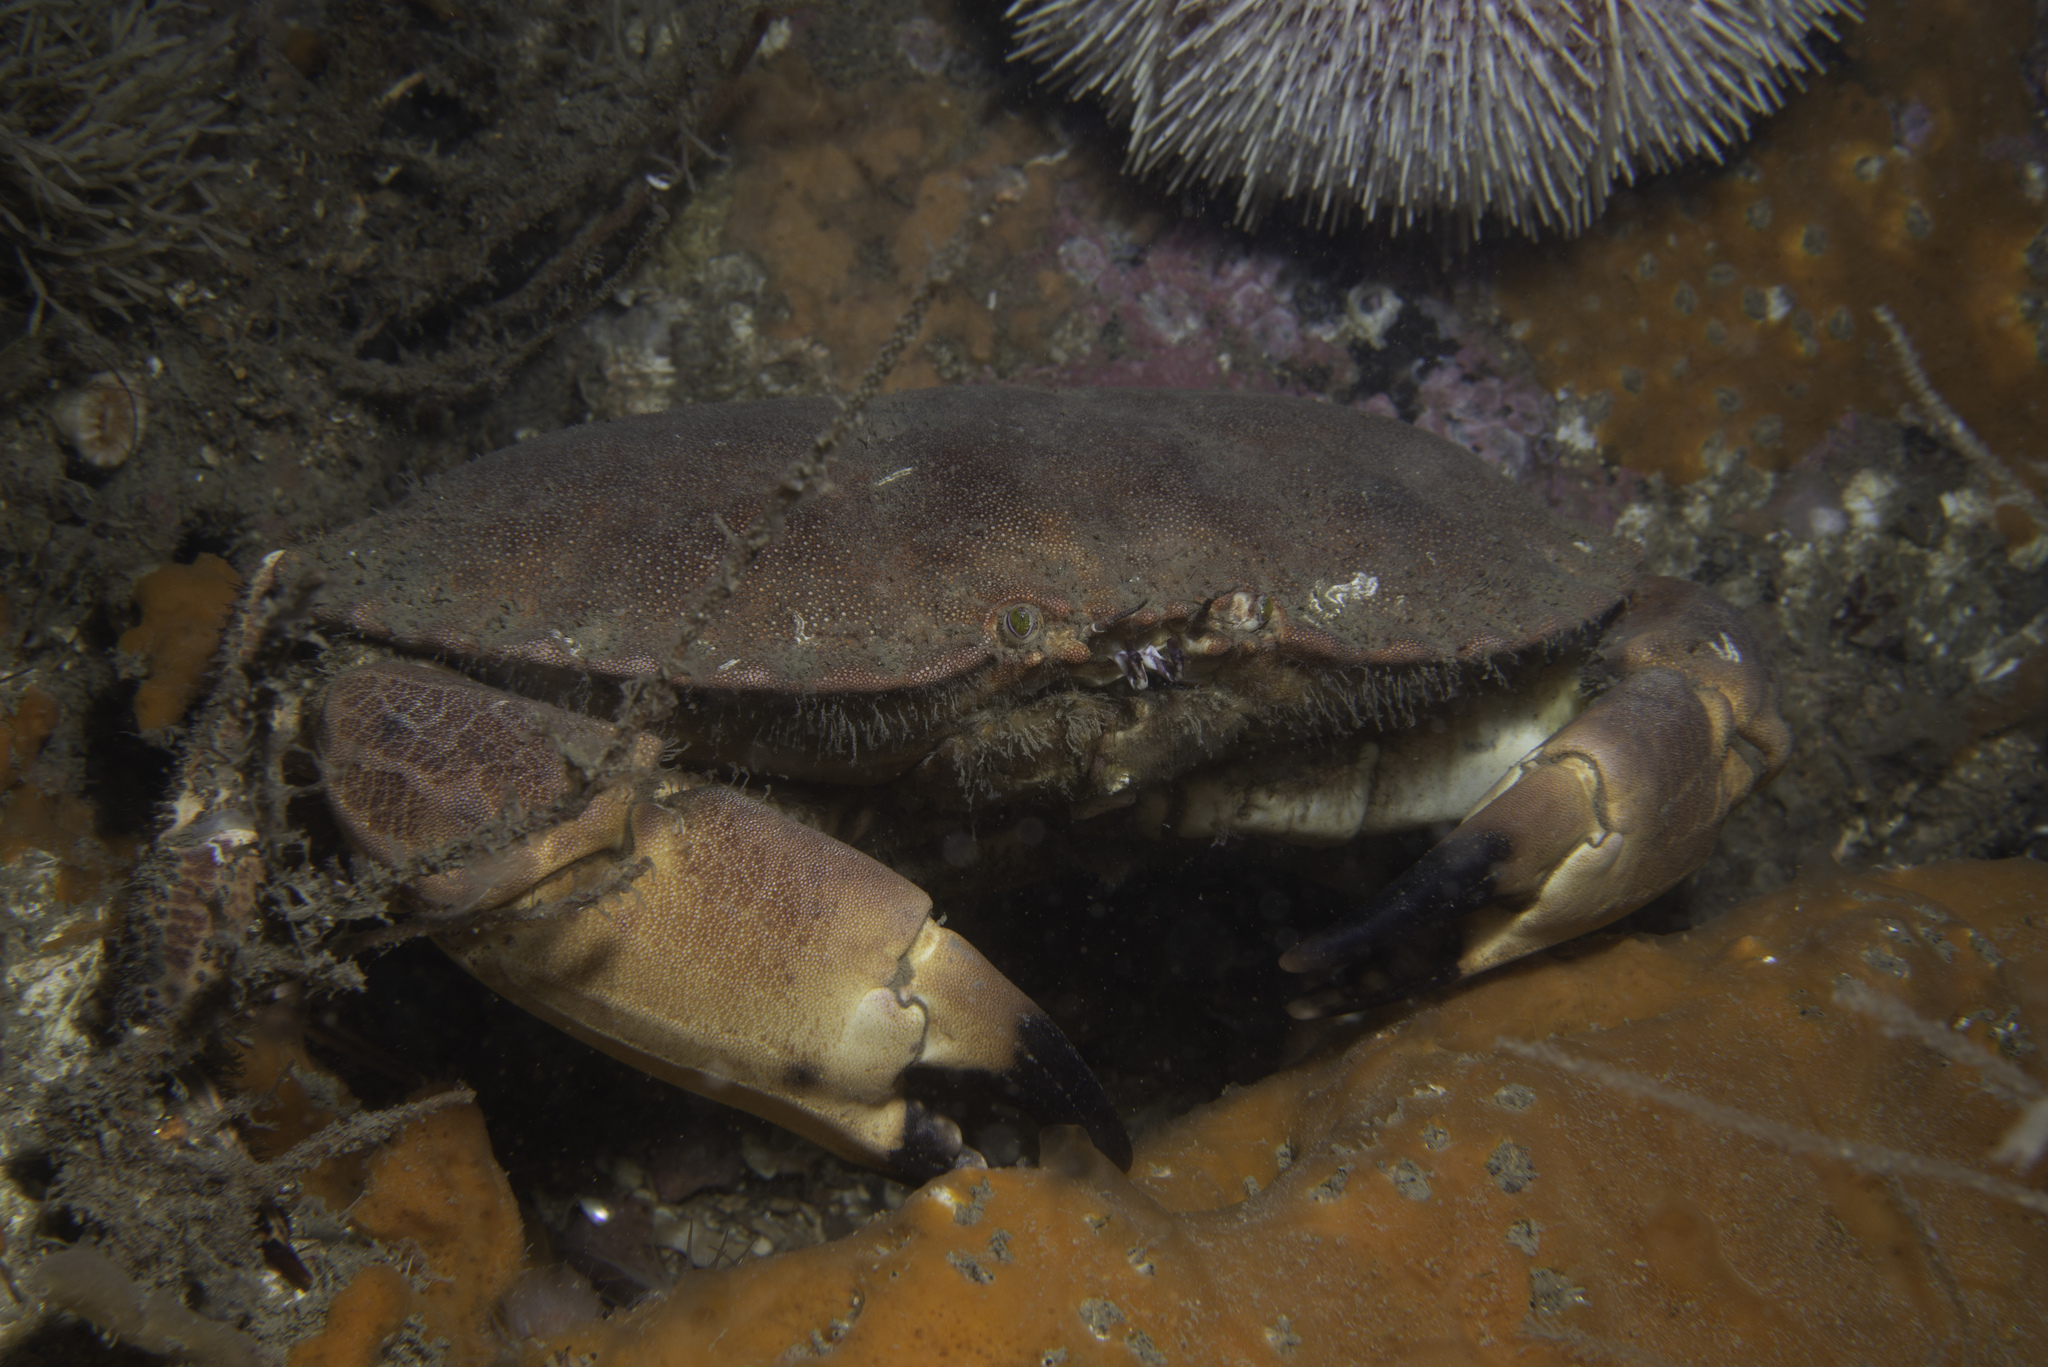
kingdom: Animalia
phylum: Arthropoda
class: Malacostraca
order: Decapoda
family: Cancridae
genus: Cancer
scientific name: Cancer pagurus
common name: Edible crab
